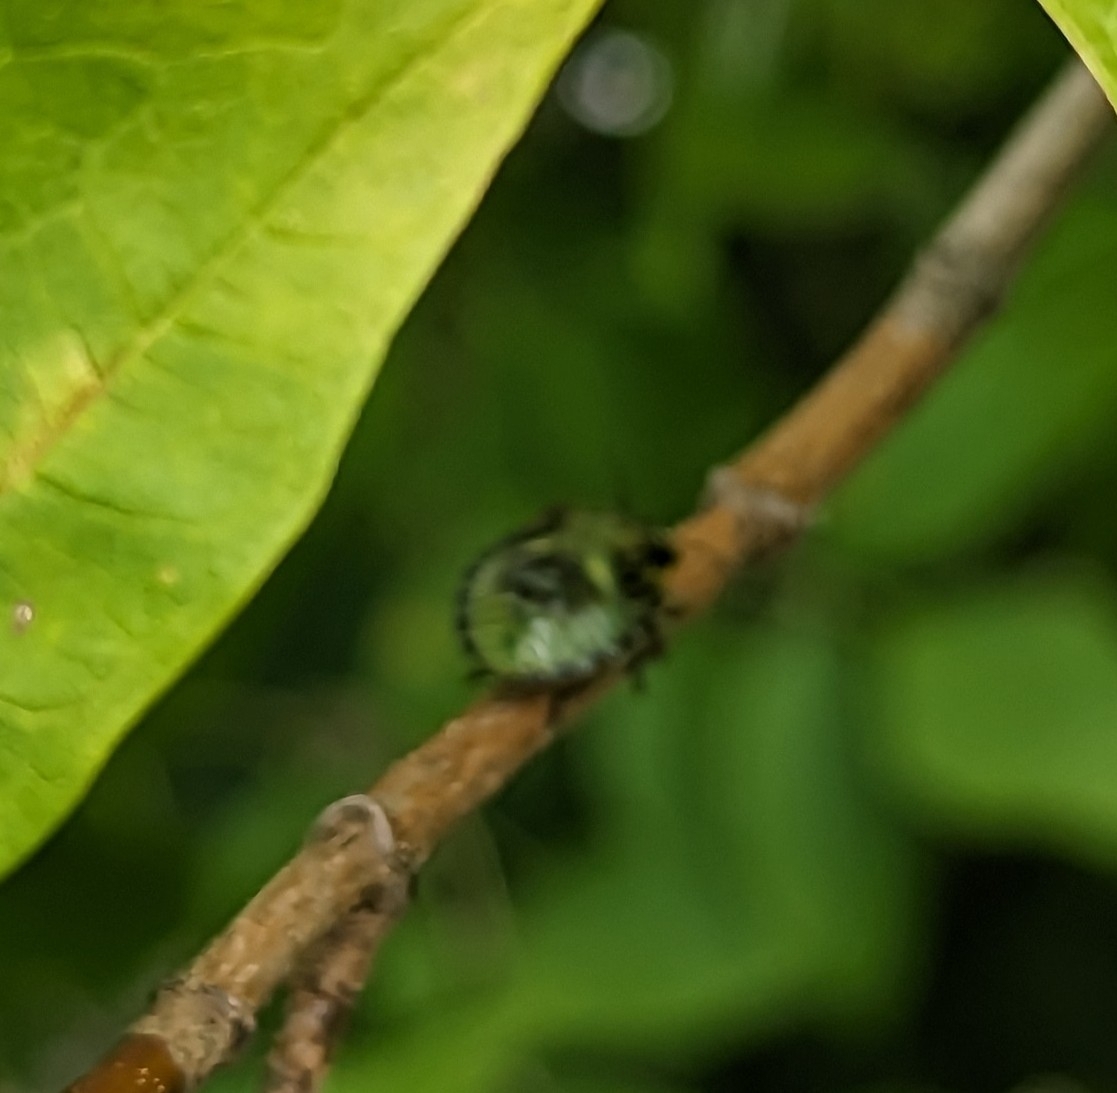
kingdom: Animalia
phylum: Arthropoda
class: Insecta
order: Hemiptera
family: Pentatomidae
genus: Chinavia
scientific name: Chinavia hilaris
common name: Green stink bug
